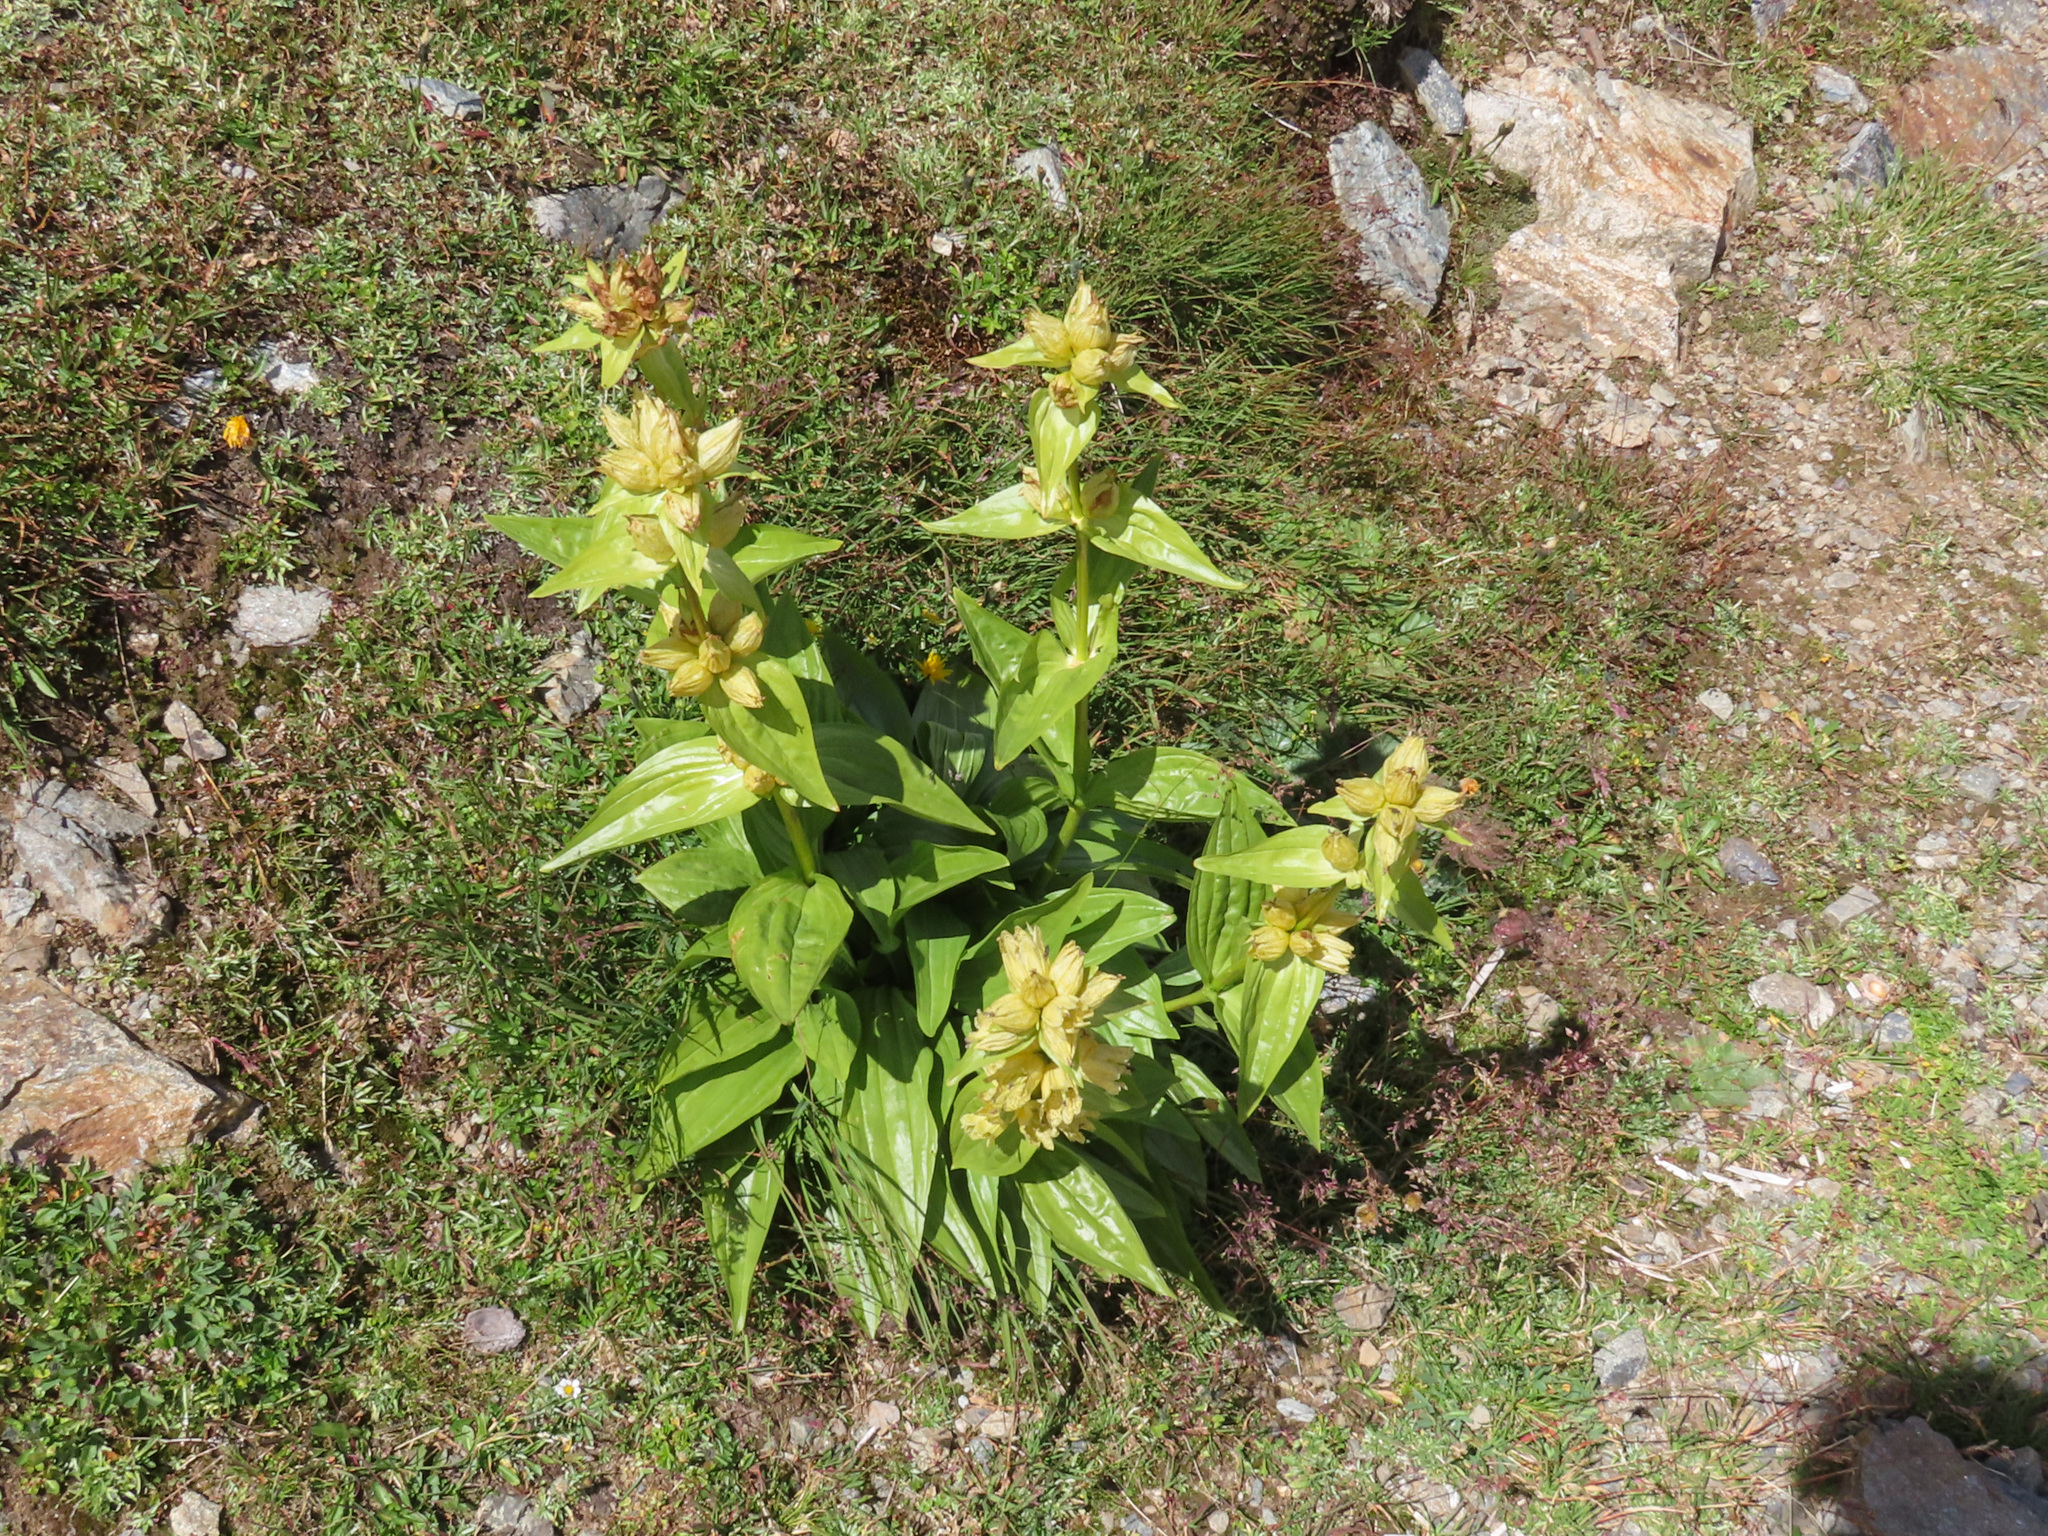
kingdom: Plantae
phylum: Tracheophyta
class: Magnoliopsida
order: Gentianales
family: Gentianaceae
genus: Gentiana
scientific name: Gentiana punctata
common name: Spotted gentian
